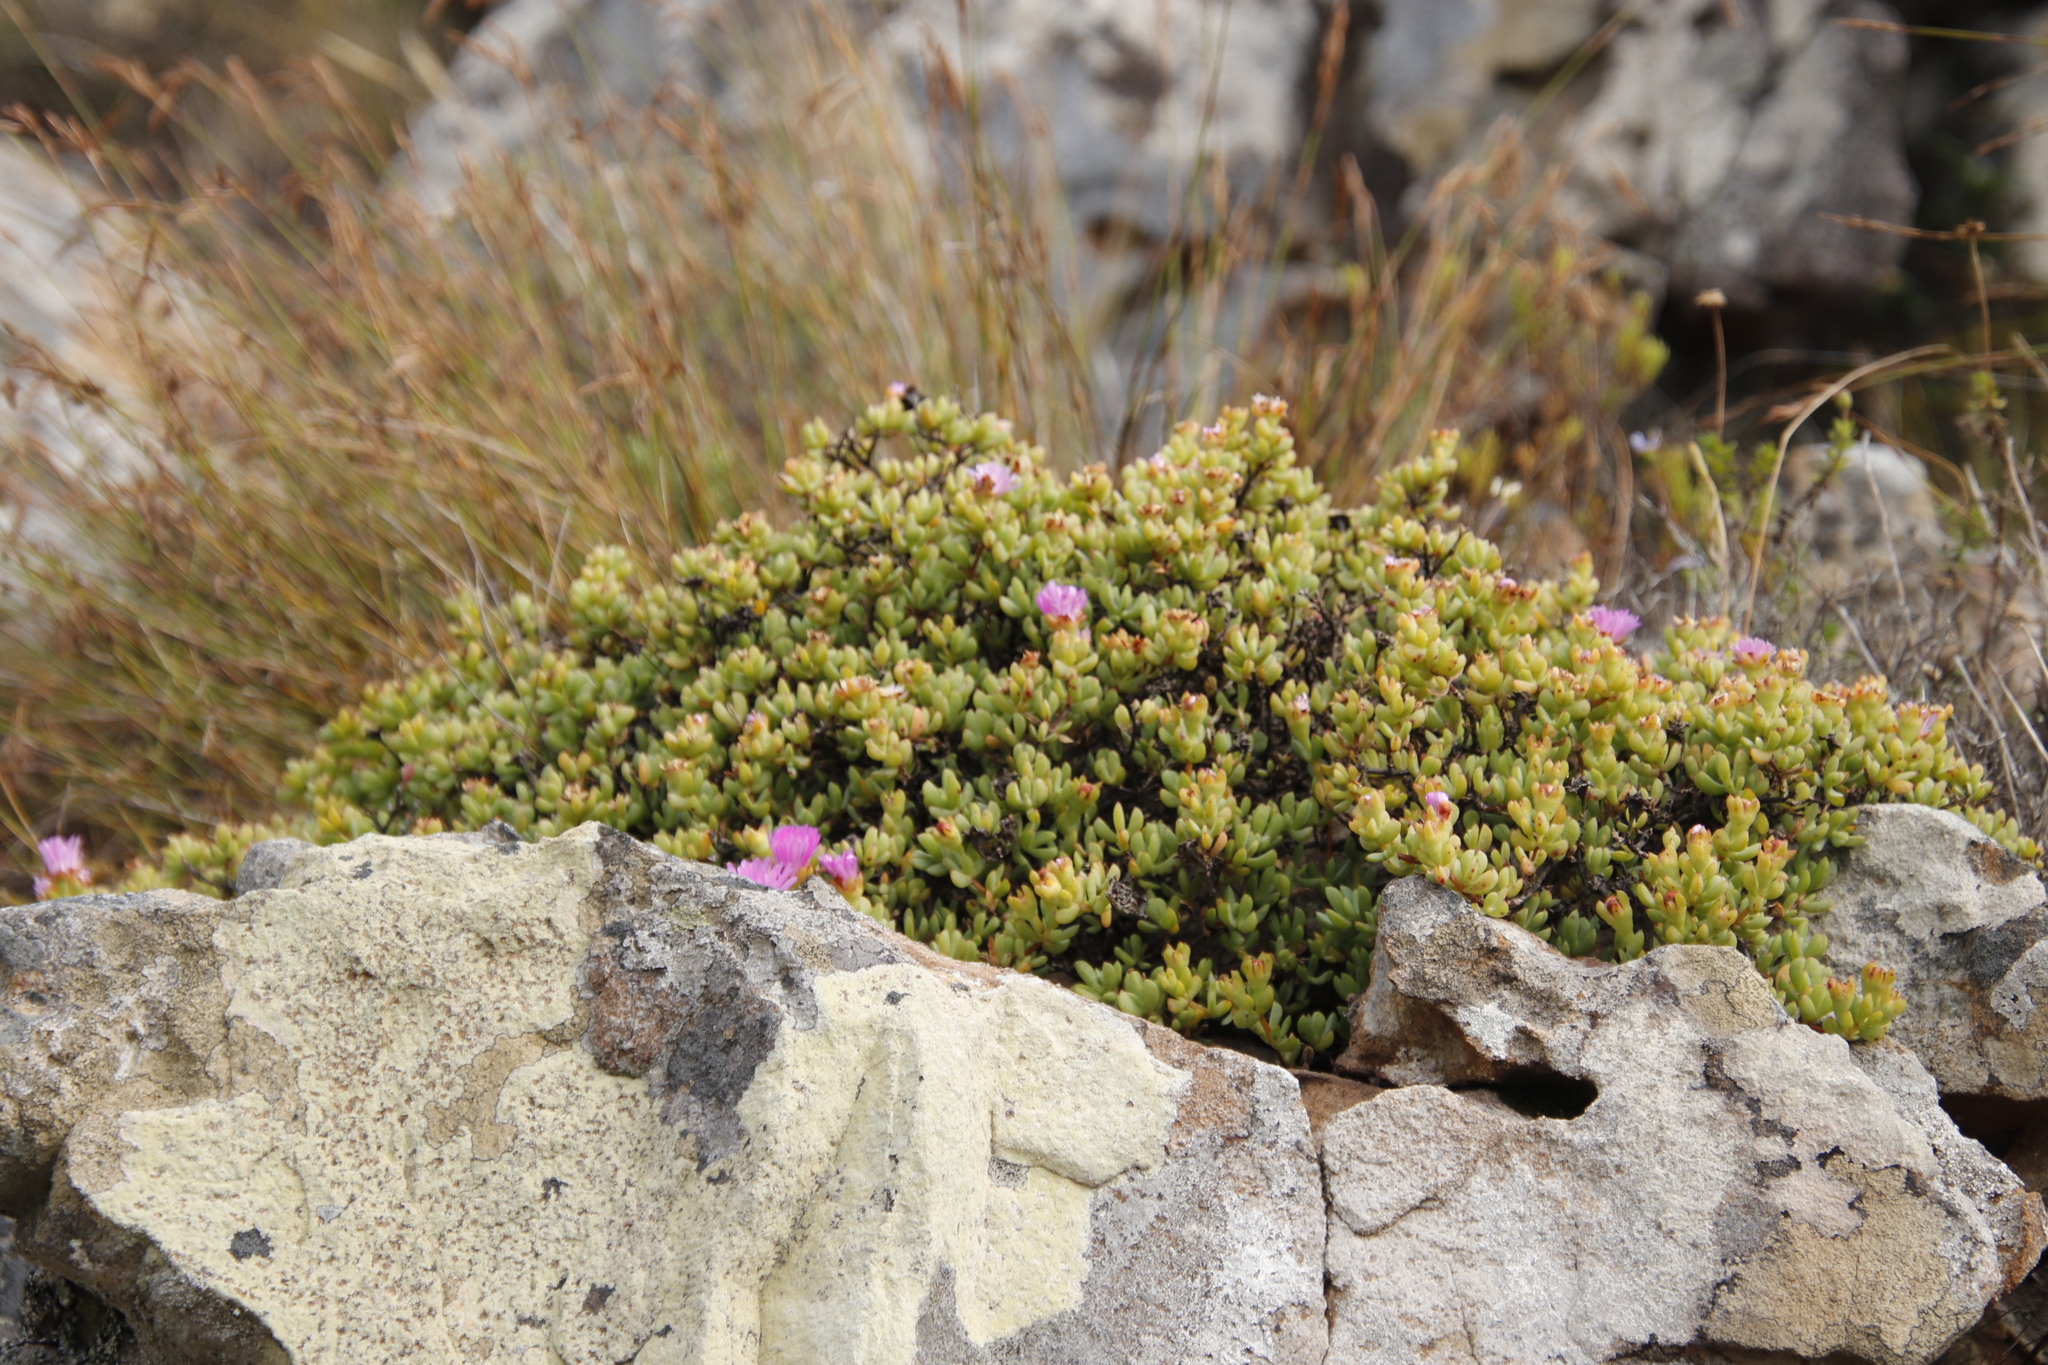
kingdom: Plantae
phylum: Tracheophyta
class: Magnoliopsida
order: Caryophyllales
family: Aizoaceae
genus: Oscularia
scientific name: Oscularia falciformis
